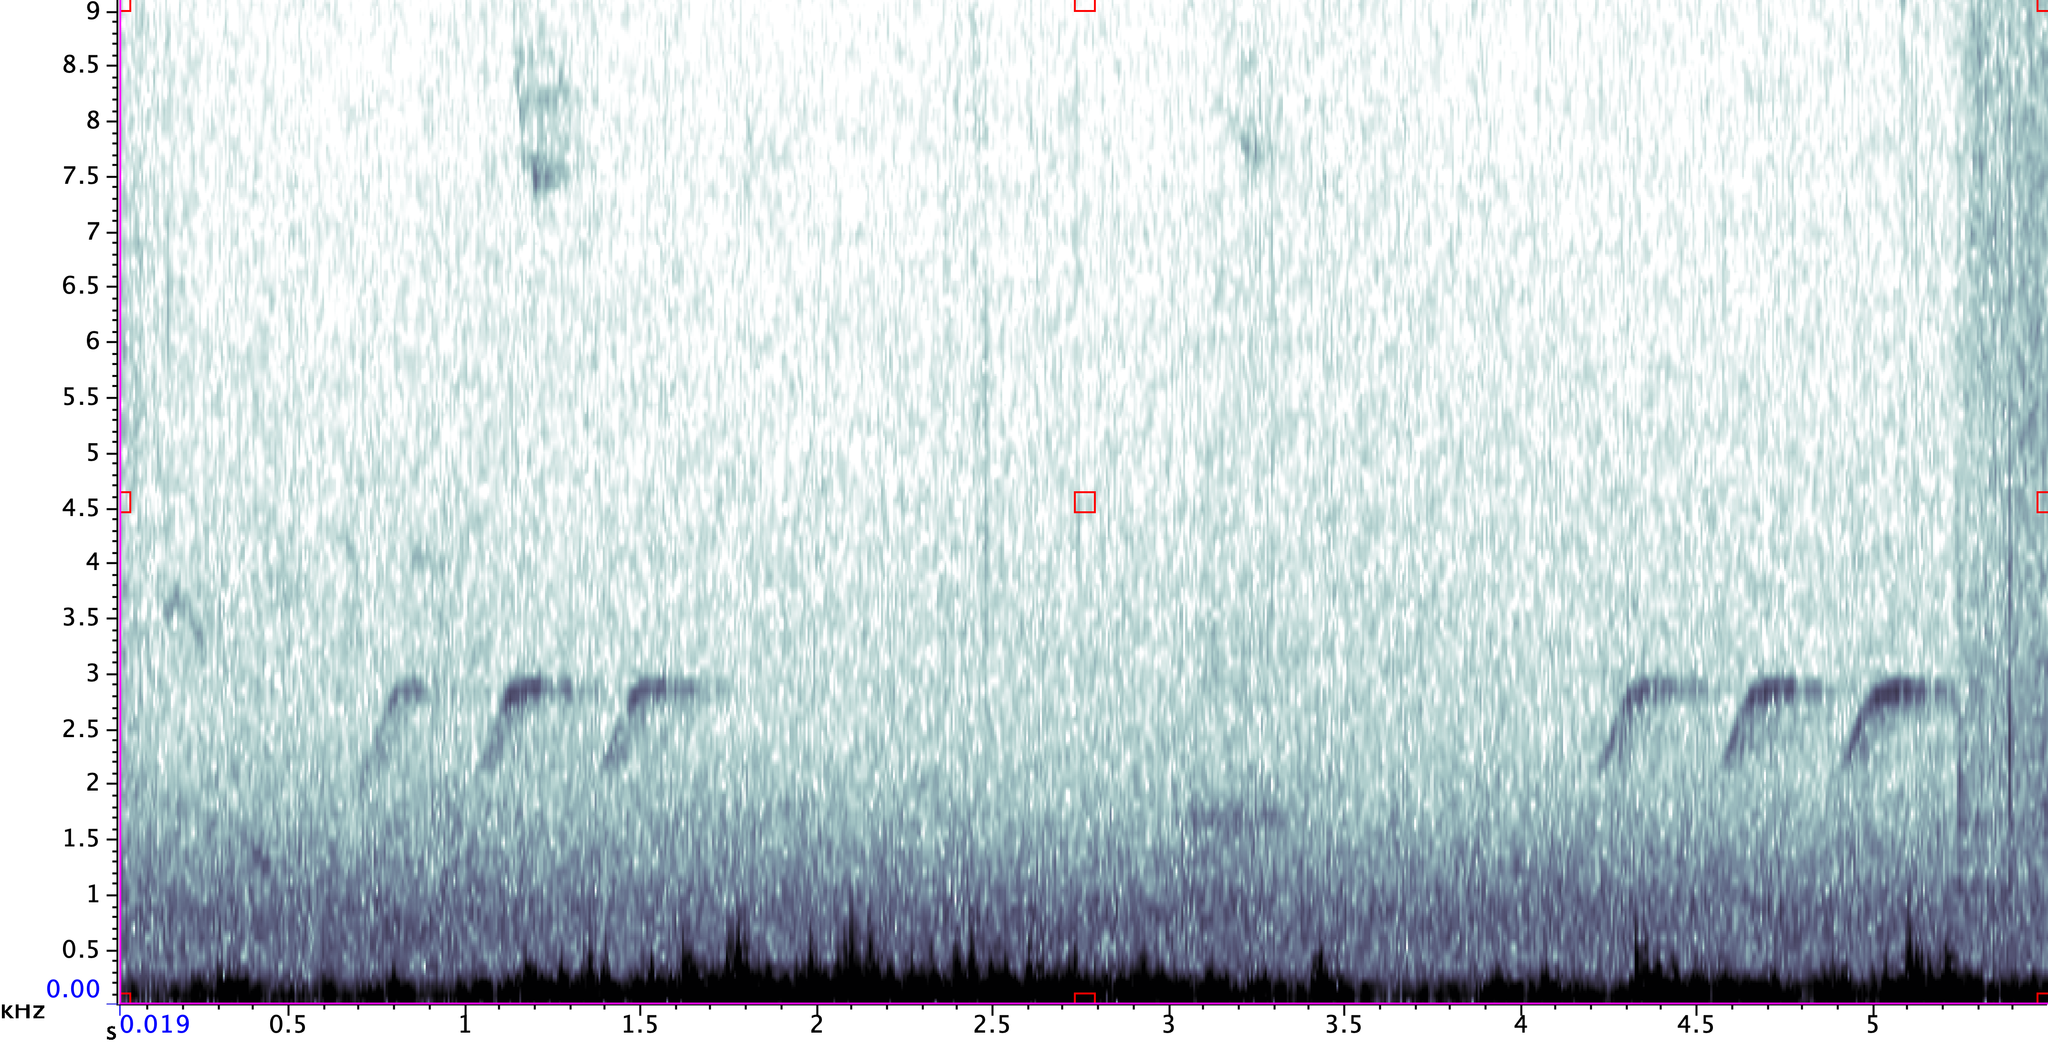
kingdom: Animalia
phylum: Chordata
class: Aves
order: Passeriformes
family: Paridae
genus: Baeolophus
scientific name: Baeolophus bicolor
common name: Tufted titmouse
